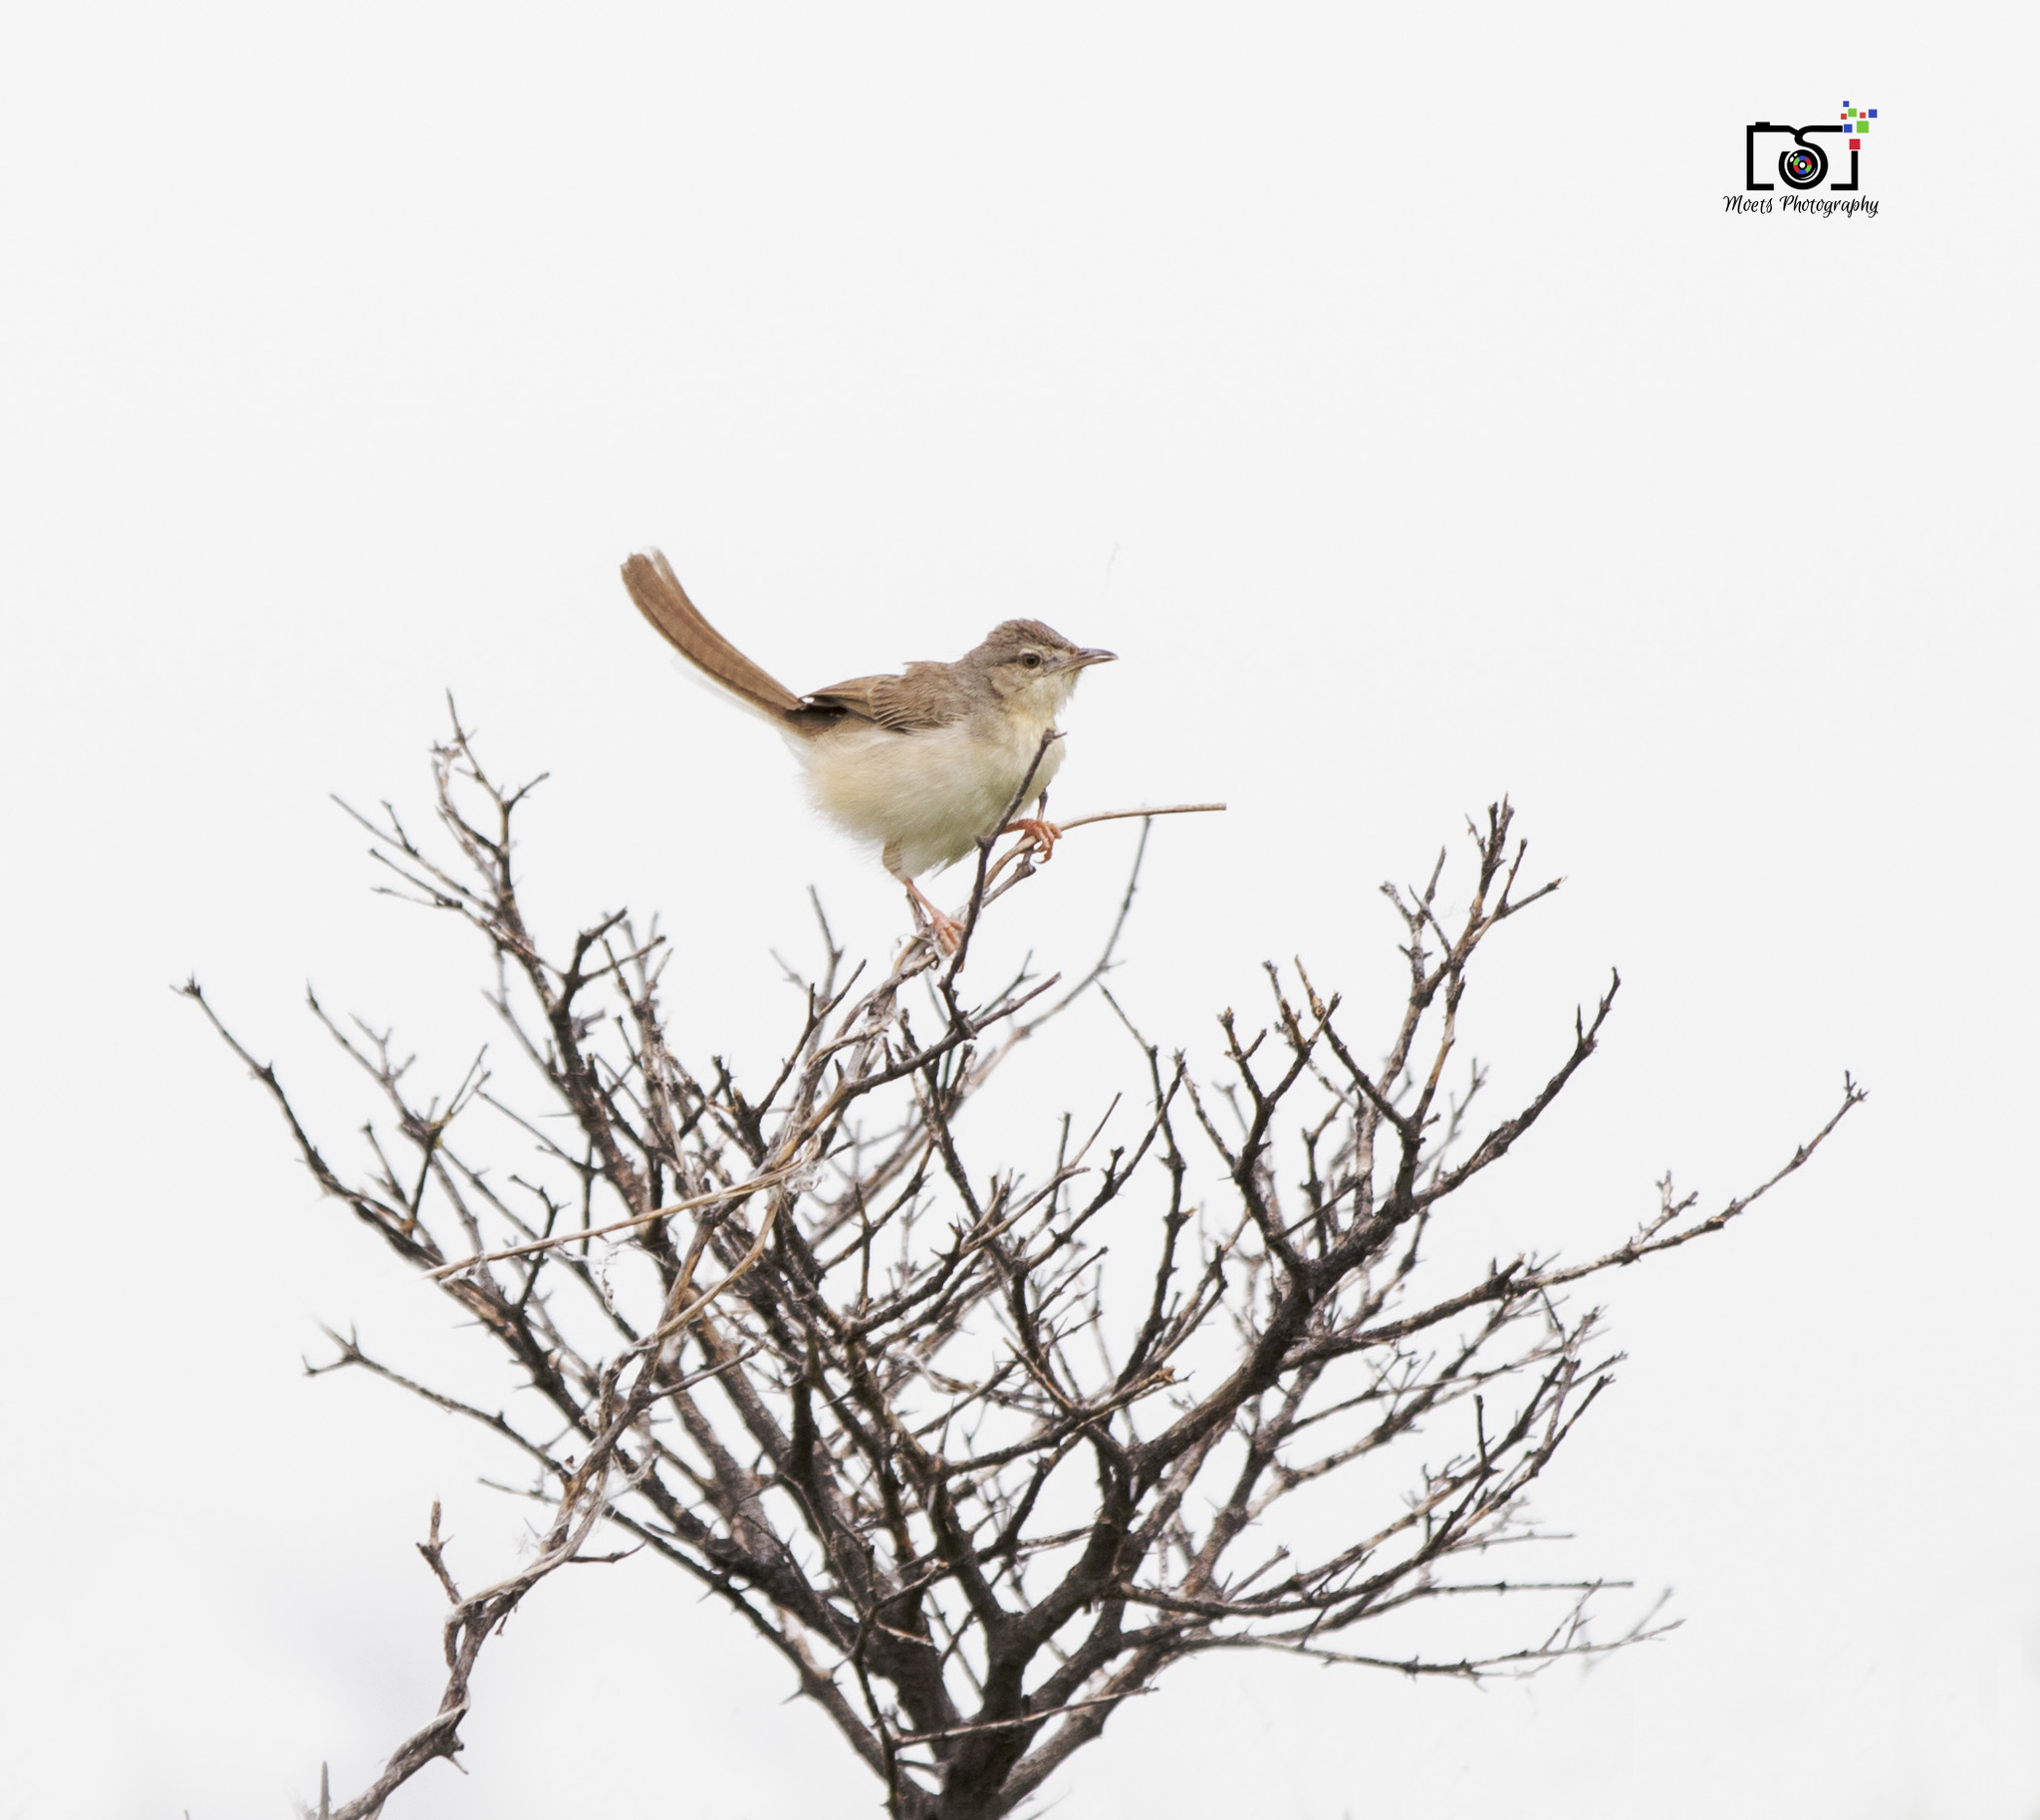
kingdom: Animalia
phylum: Chordata
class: Aves
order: Passeriformes
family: Cisticolidae
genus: Prinia
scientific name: Prinia lepida
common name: Delicate prinia
